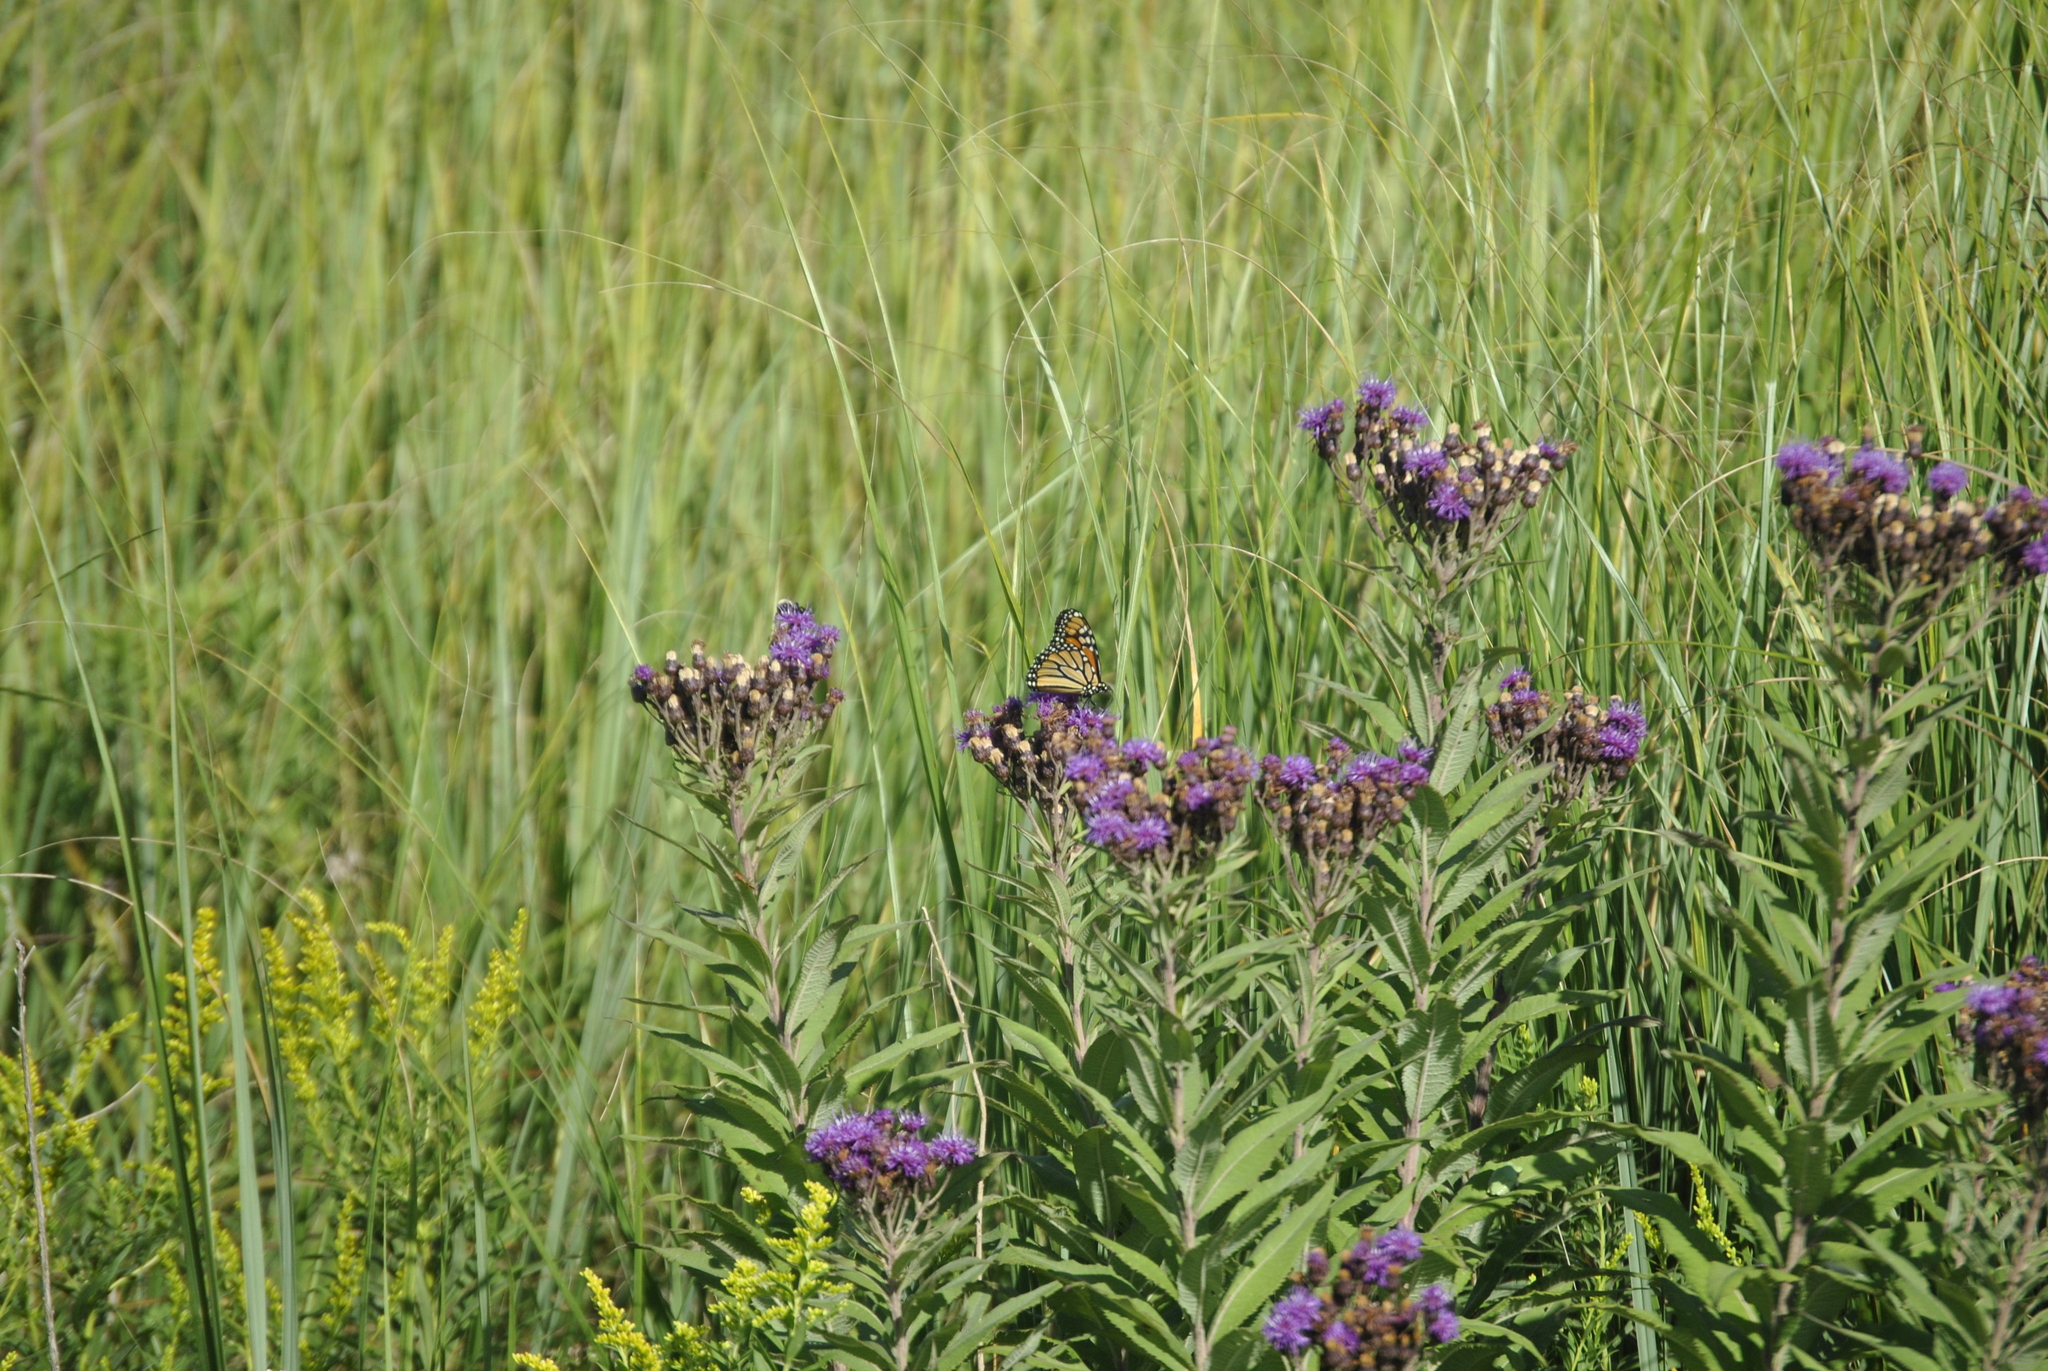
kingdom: Animalia
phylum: Arthropoda
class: Insecta
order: Lepidoptera
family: Nymphalidae
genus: Danaus
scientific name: Danaus plexippus
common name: Monarch
